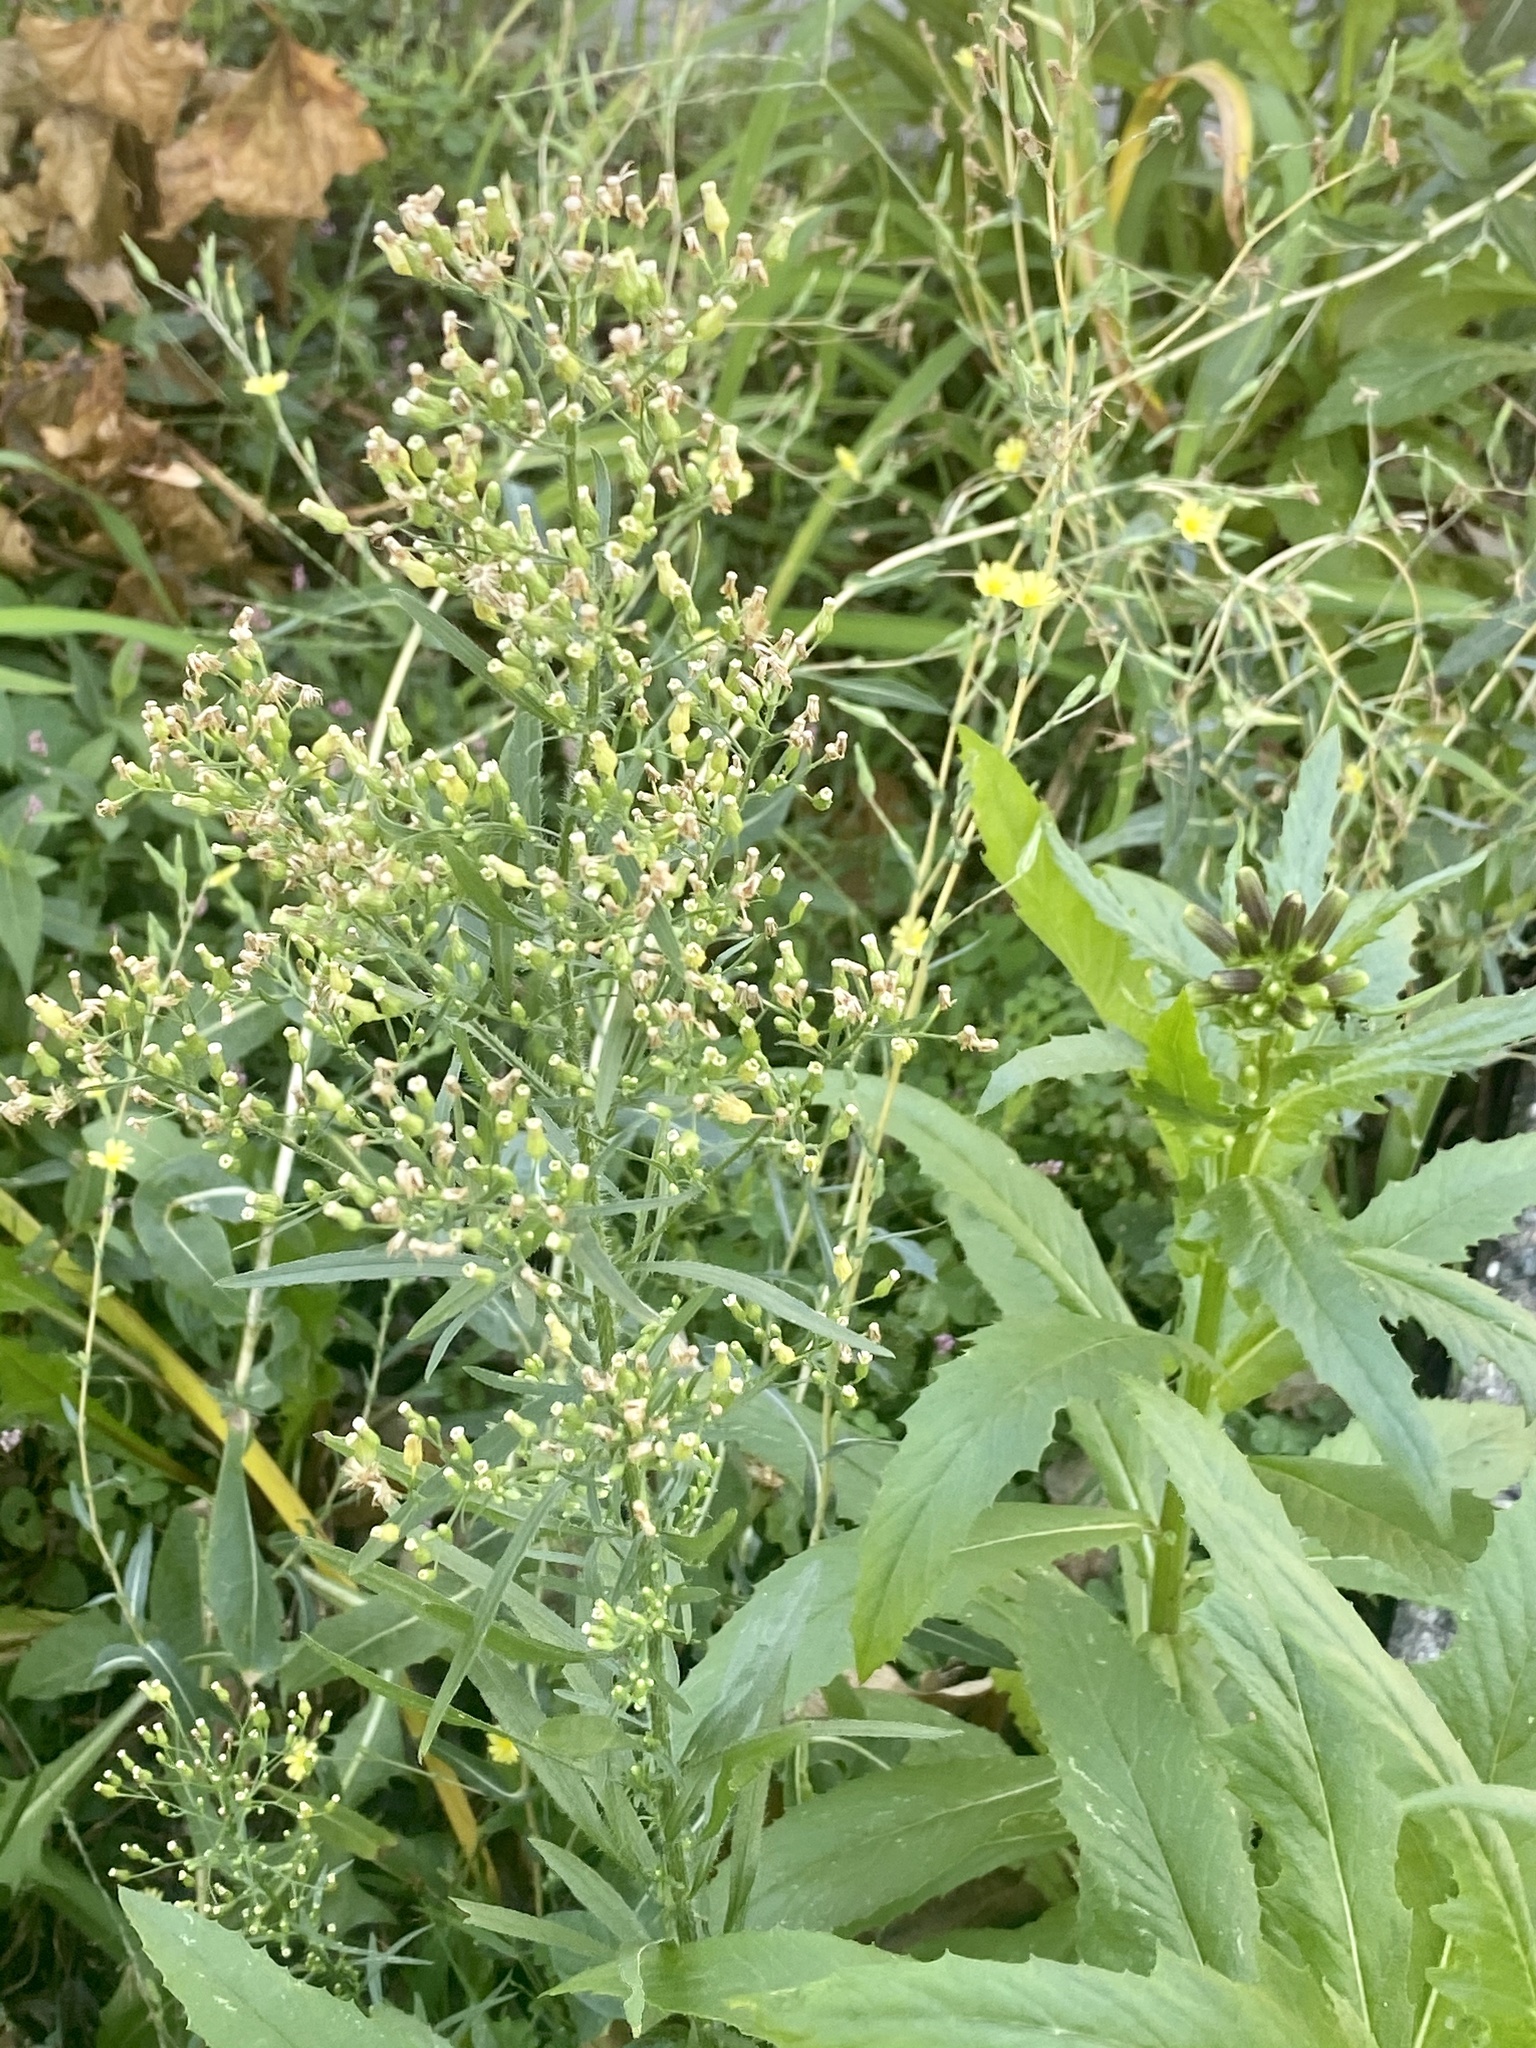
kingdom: Plantae
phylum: Tracheophyta
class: Magnoliopsida
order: Asterales
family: Asteraceae
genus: Erigeron
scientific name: Erigeron canadensis
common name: Canadian fleabane
